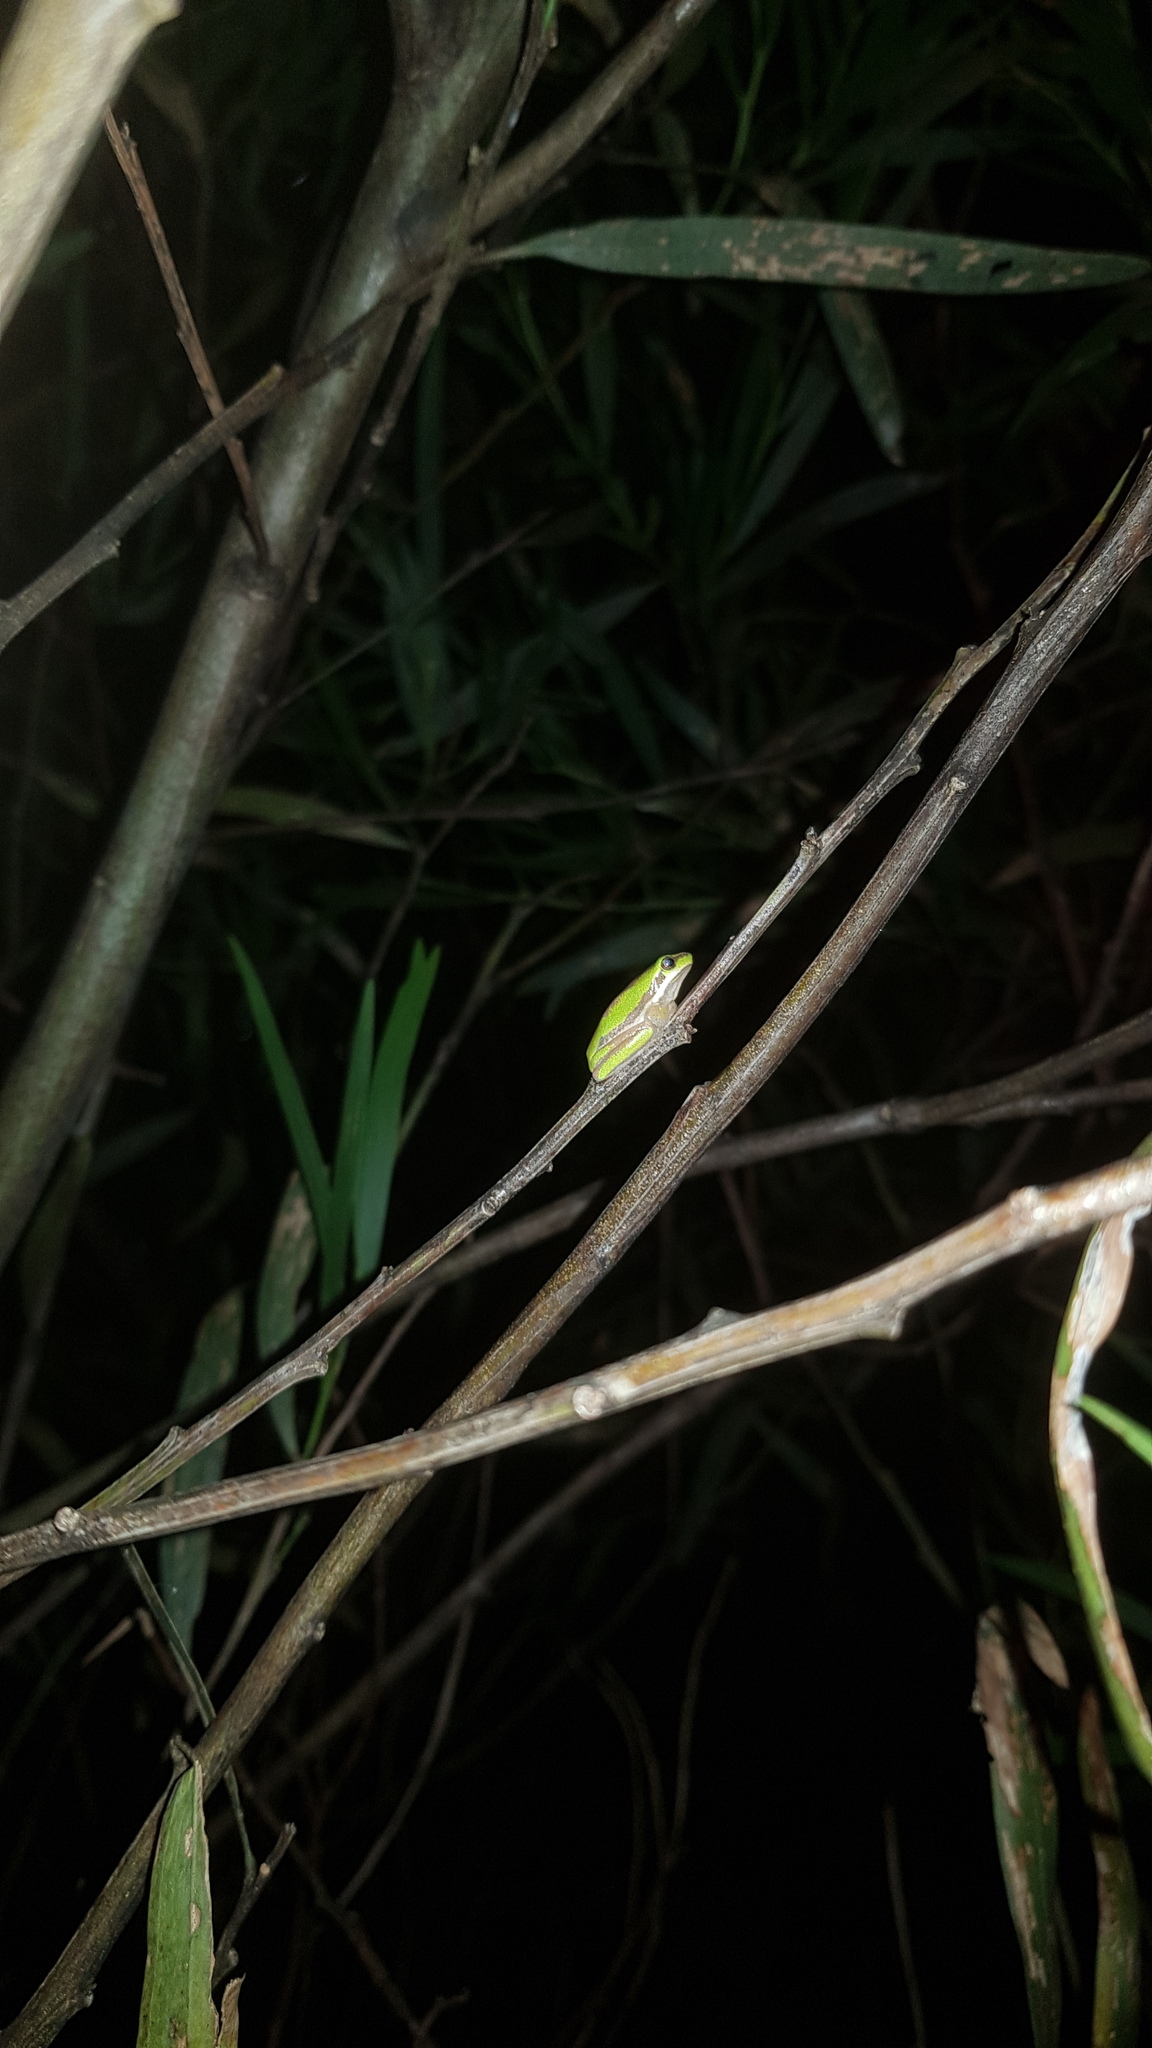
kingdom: Animalia
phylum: Chordata
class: Amphibia
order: Anura
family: Pelodryadidae
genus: Litoria
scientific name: Litoria fallax
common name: Eastern dwarf treefrog
